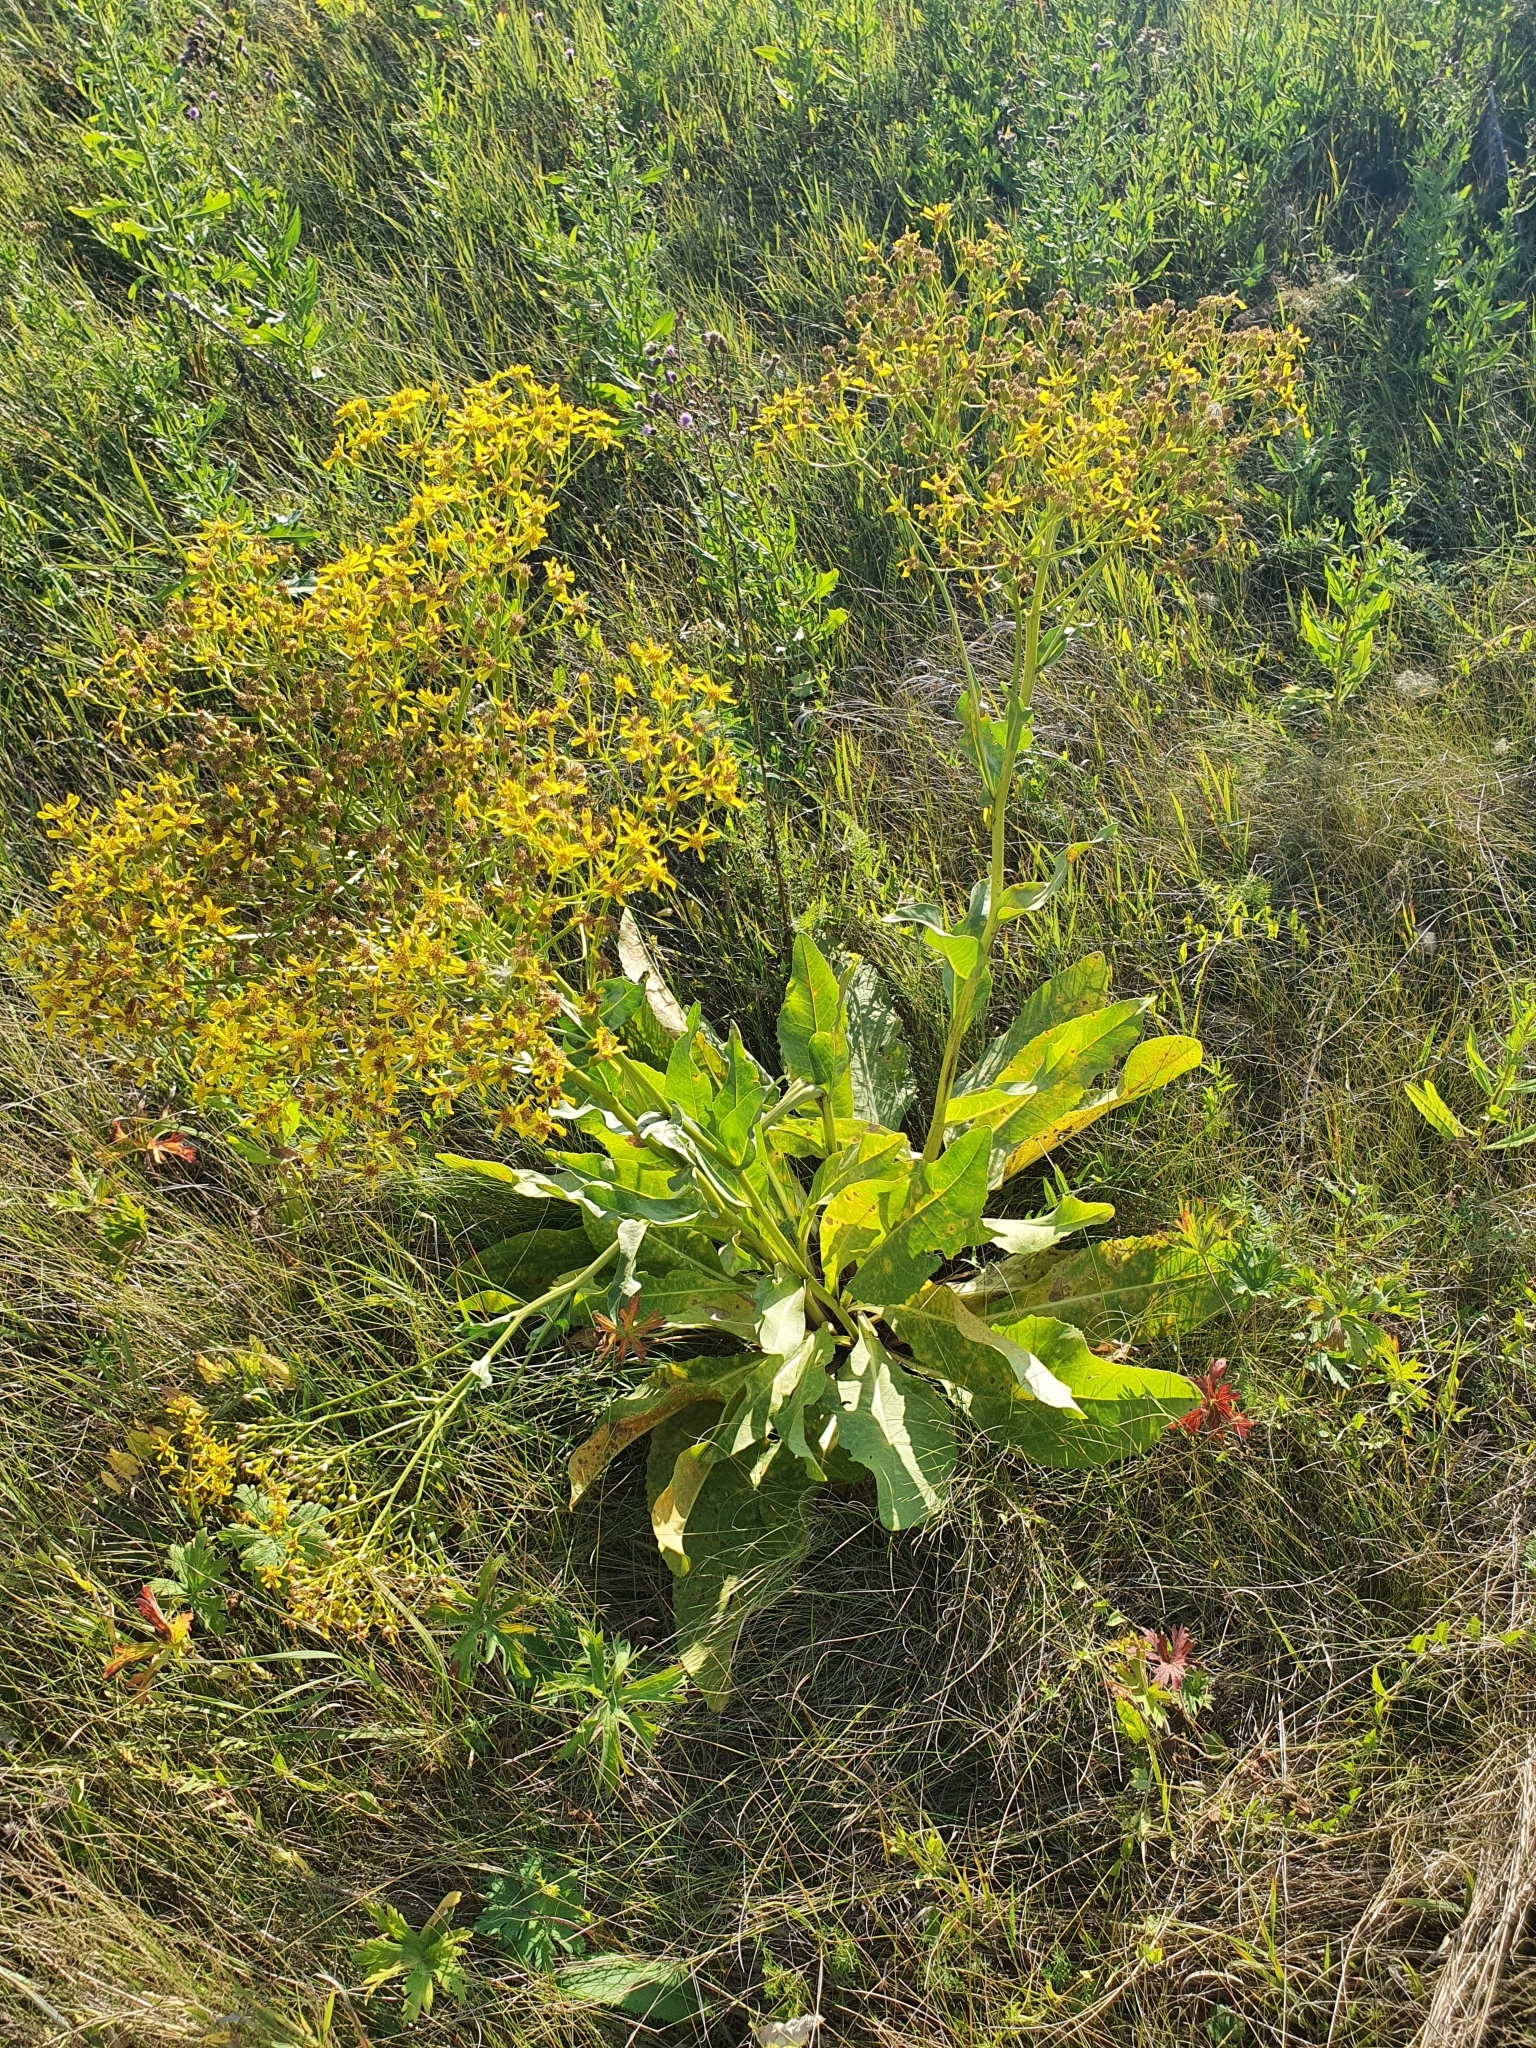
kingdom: Plantae
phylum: Tracheophyta
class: Magnoliopsida
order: Asterales
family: Asteraceae
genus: Senecio
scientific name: Senecio doria
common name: Golden ragwort
